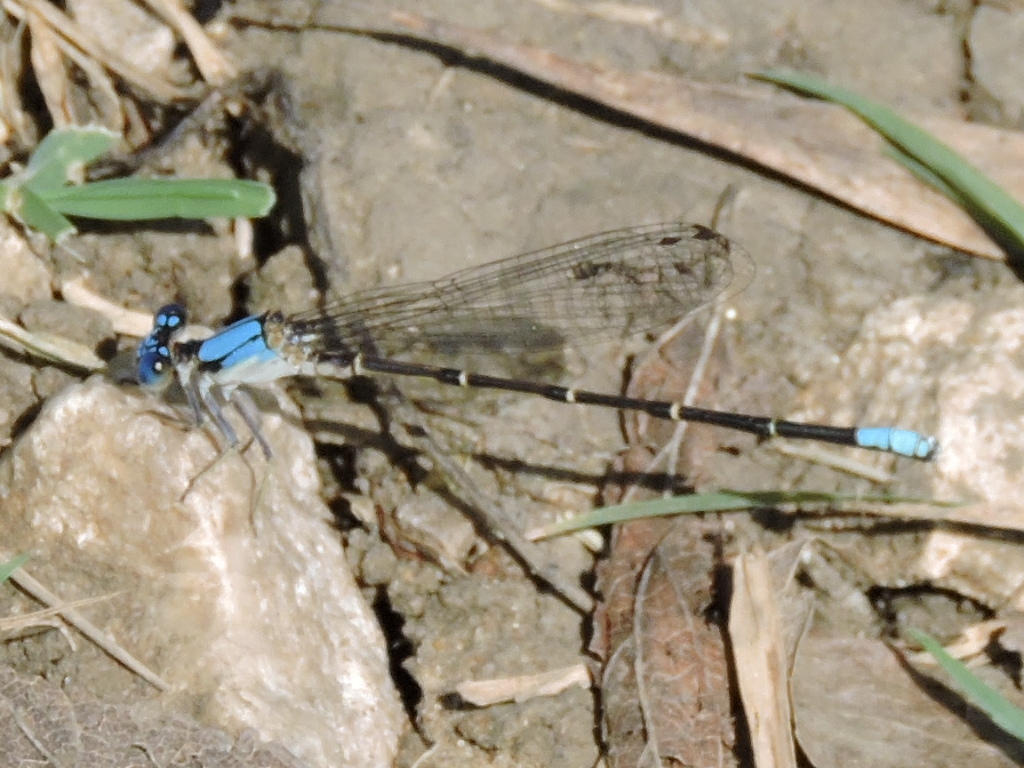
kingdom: Animalia
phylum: Arthropoda
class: Insecta
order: Odonata
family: Coenagrionidae
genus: Argia
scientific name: Argia apicalis
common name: Blue-fronted dancer
